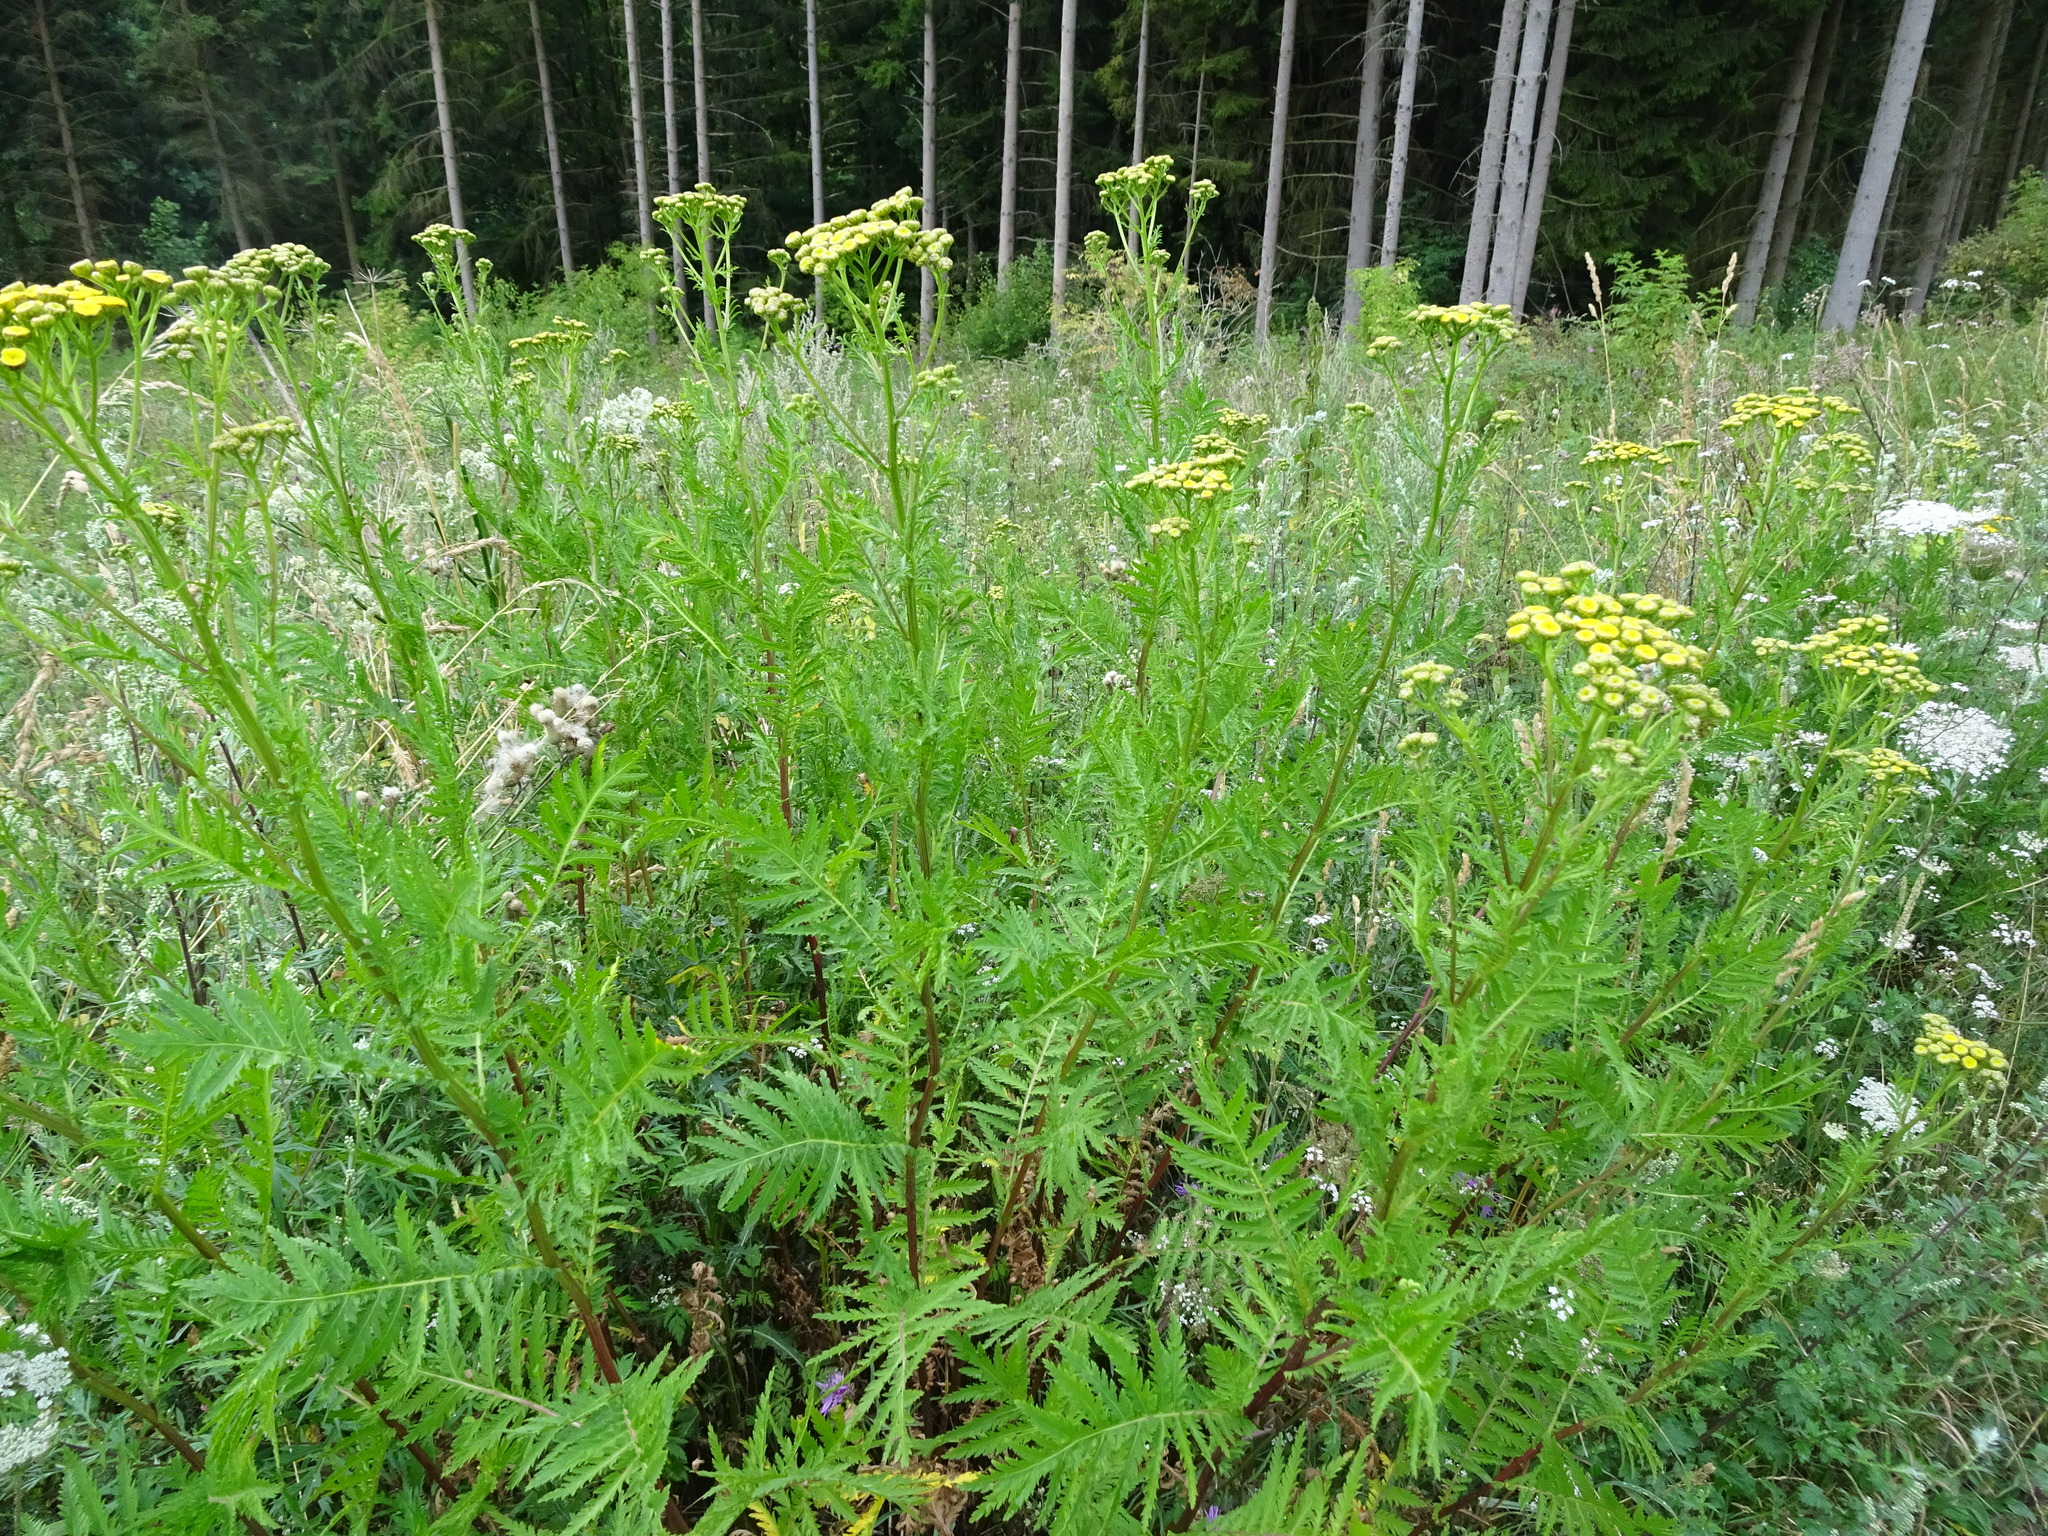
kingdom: Plantae
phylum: Tracheophyta
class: Magnoliopsida
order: Asterales
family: Asteraceae
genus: Tanacetum
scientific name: Tanacetum vulgare
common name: Common tansy
